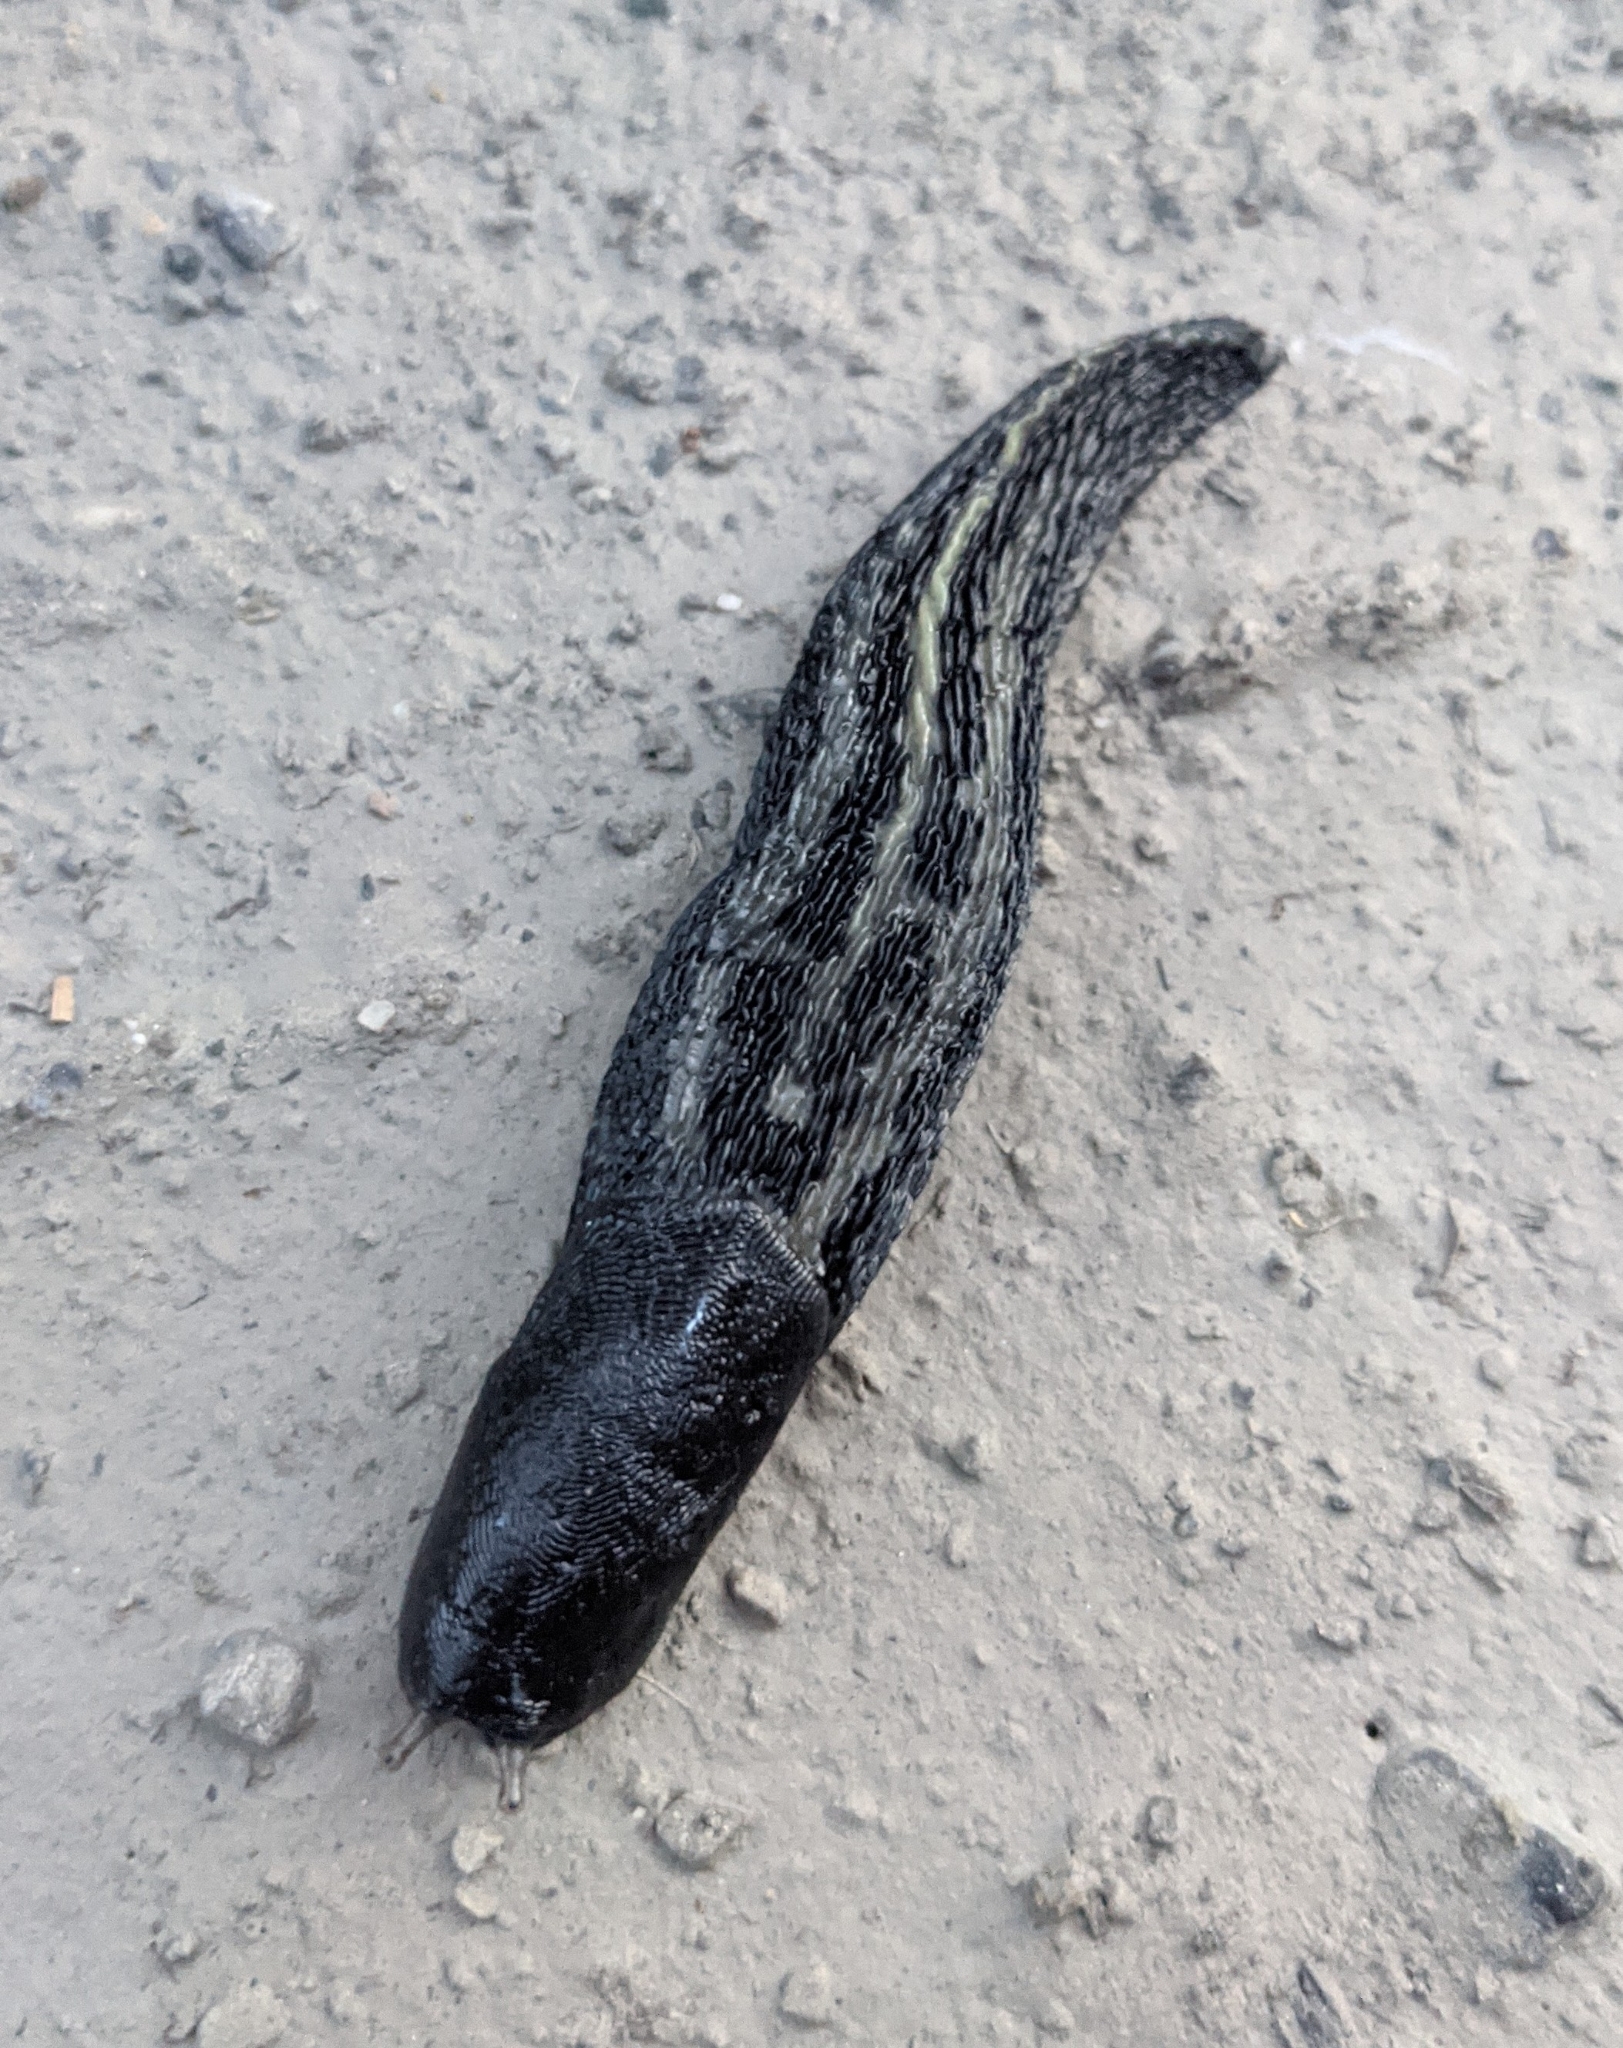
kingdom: Animalia
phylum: Mollusca
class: Gastropoda
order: Stylommatophora
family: Limacidae
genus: Limax
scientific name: Limax cinereoniger
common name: Ash-black slug
